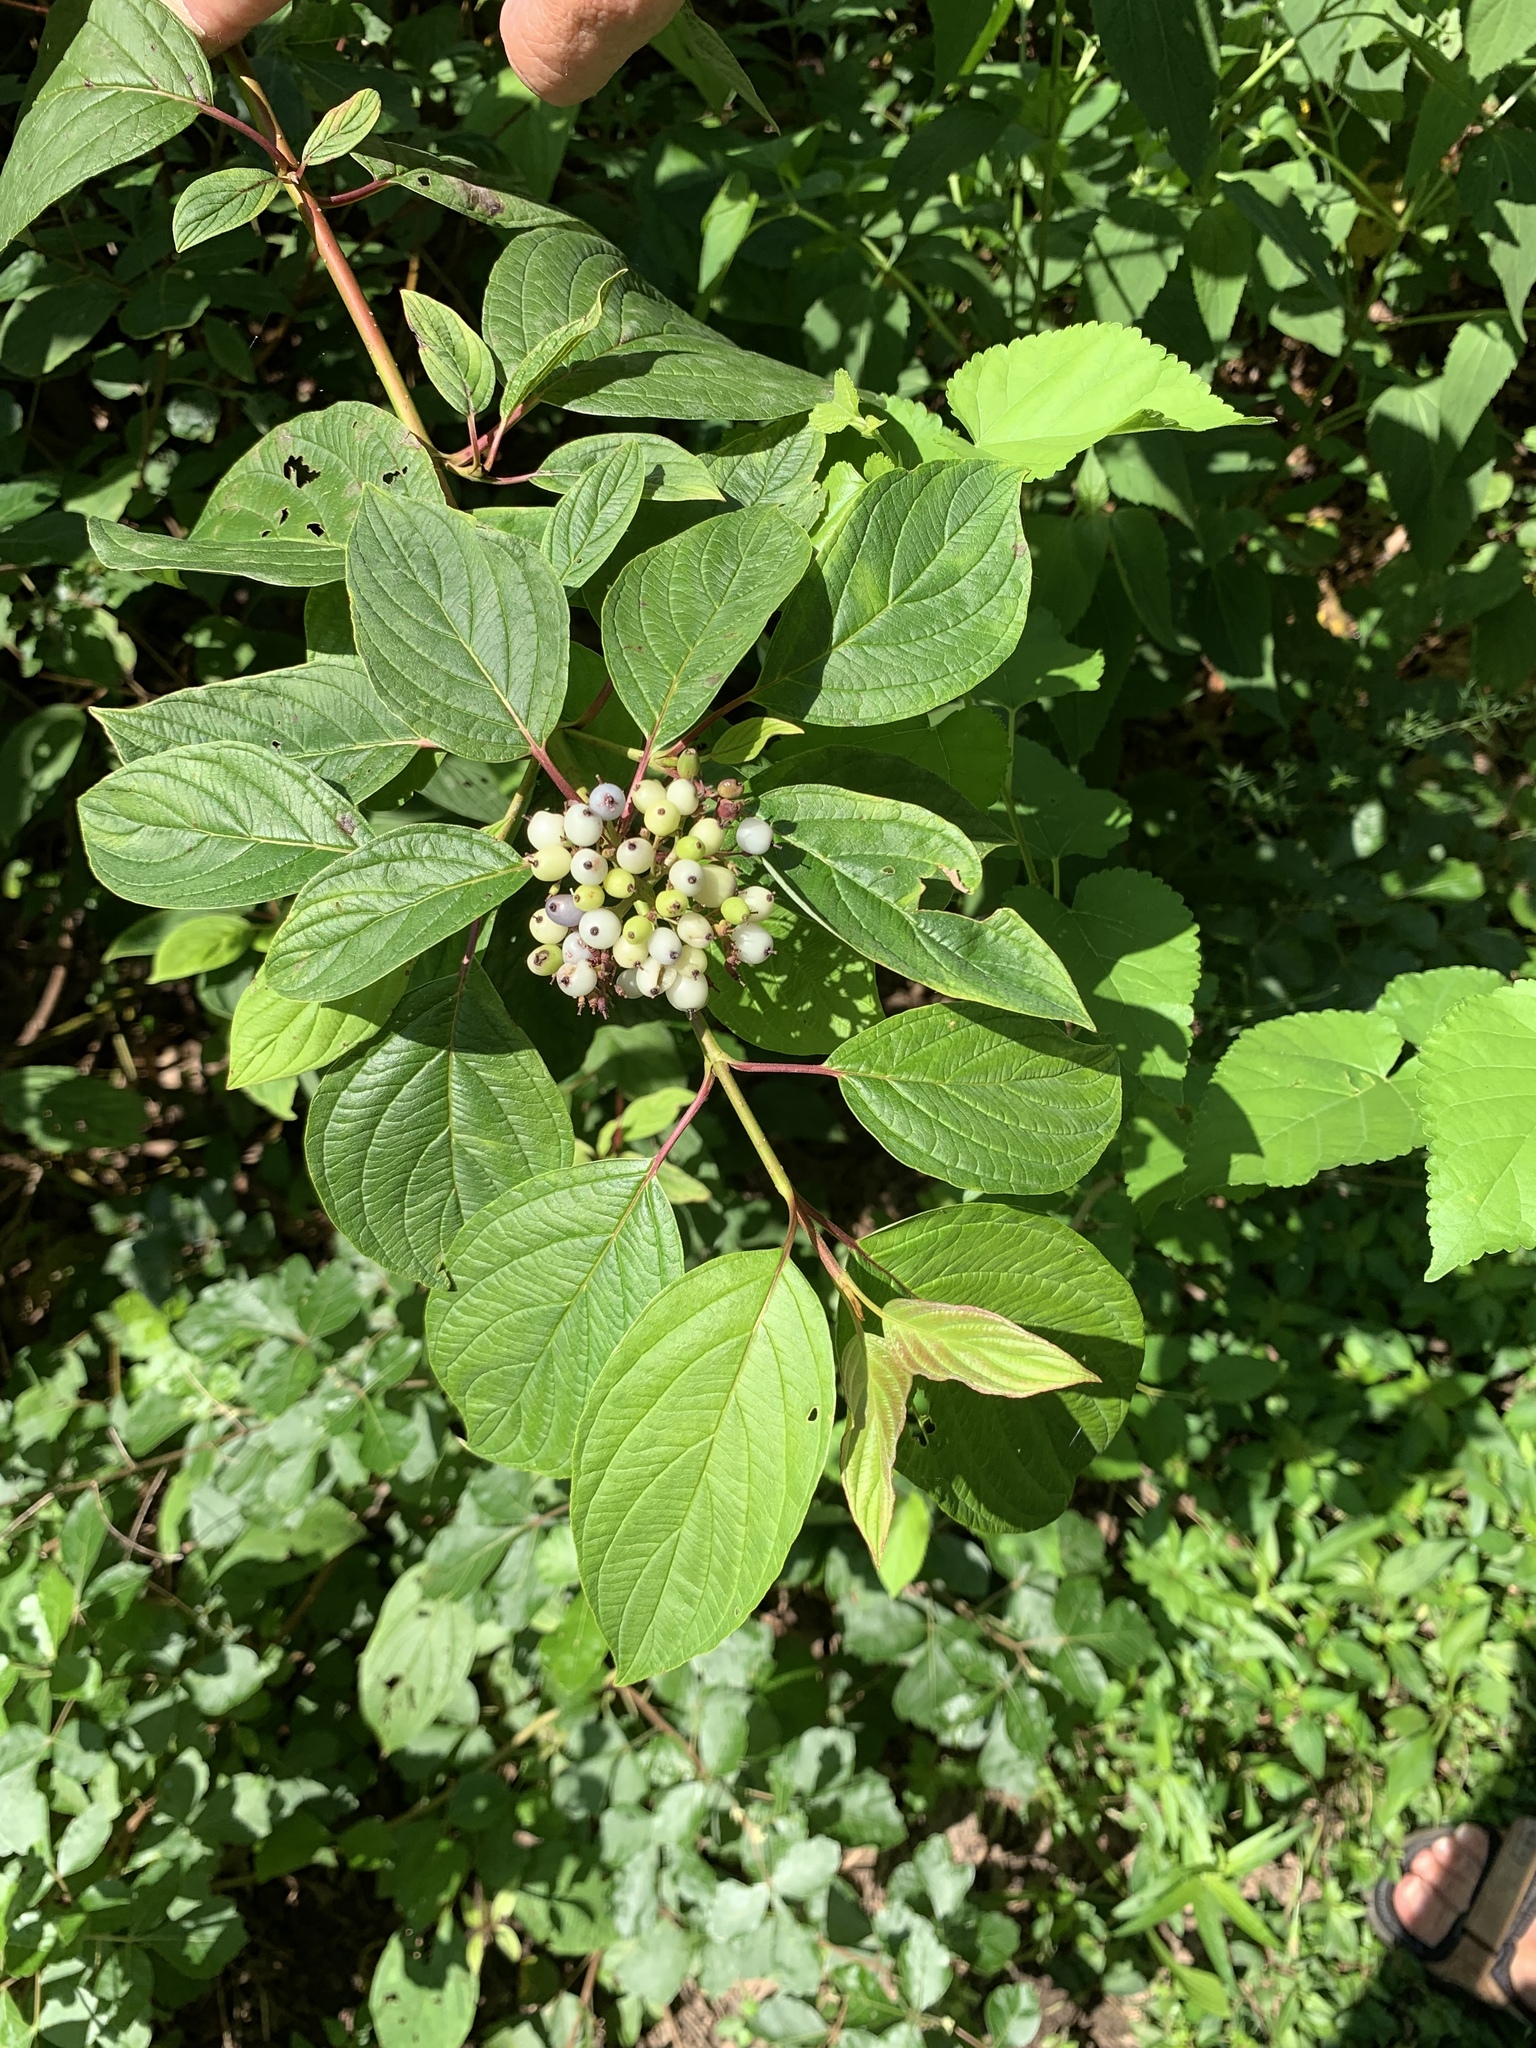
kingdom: Plantae
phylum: Tracheophyta
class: Magnoliopsida
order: Cornales
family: Cornaceae
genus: Cornus
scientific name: Cornus sericea
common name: Red-osier dogwood
